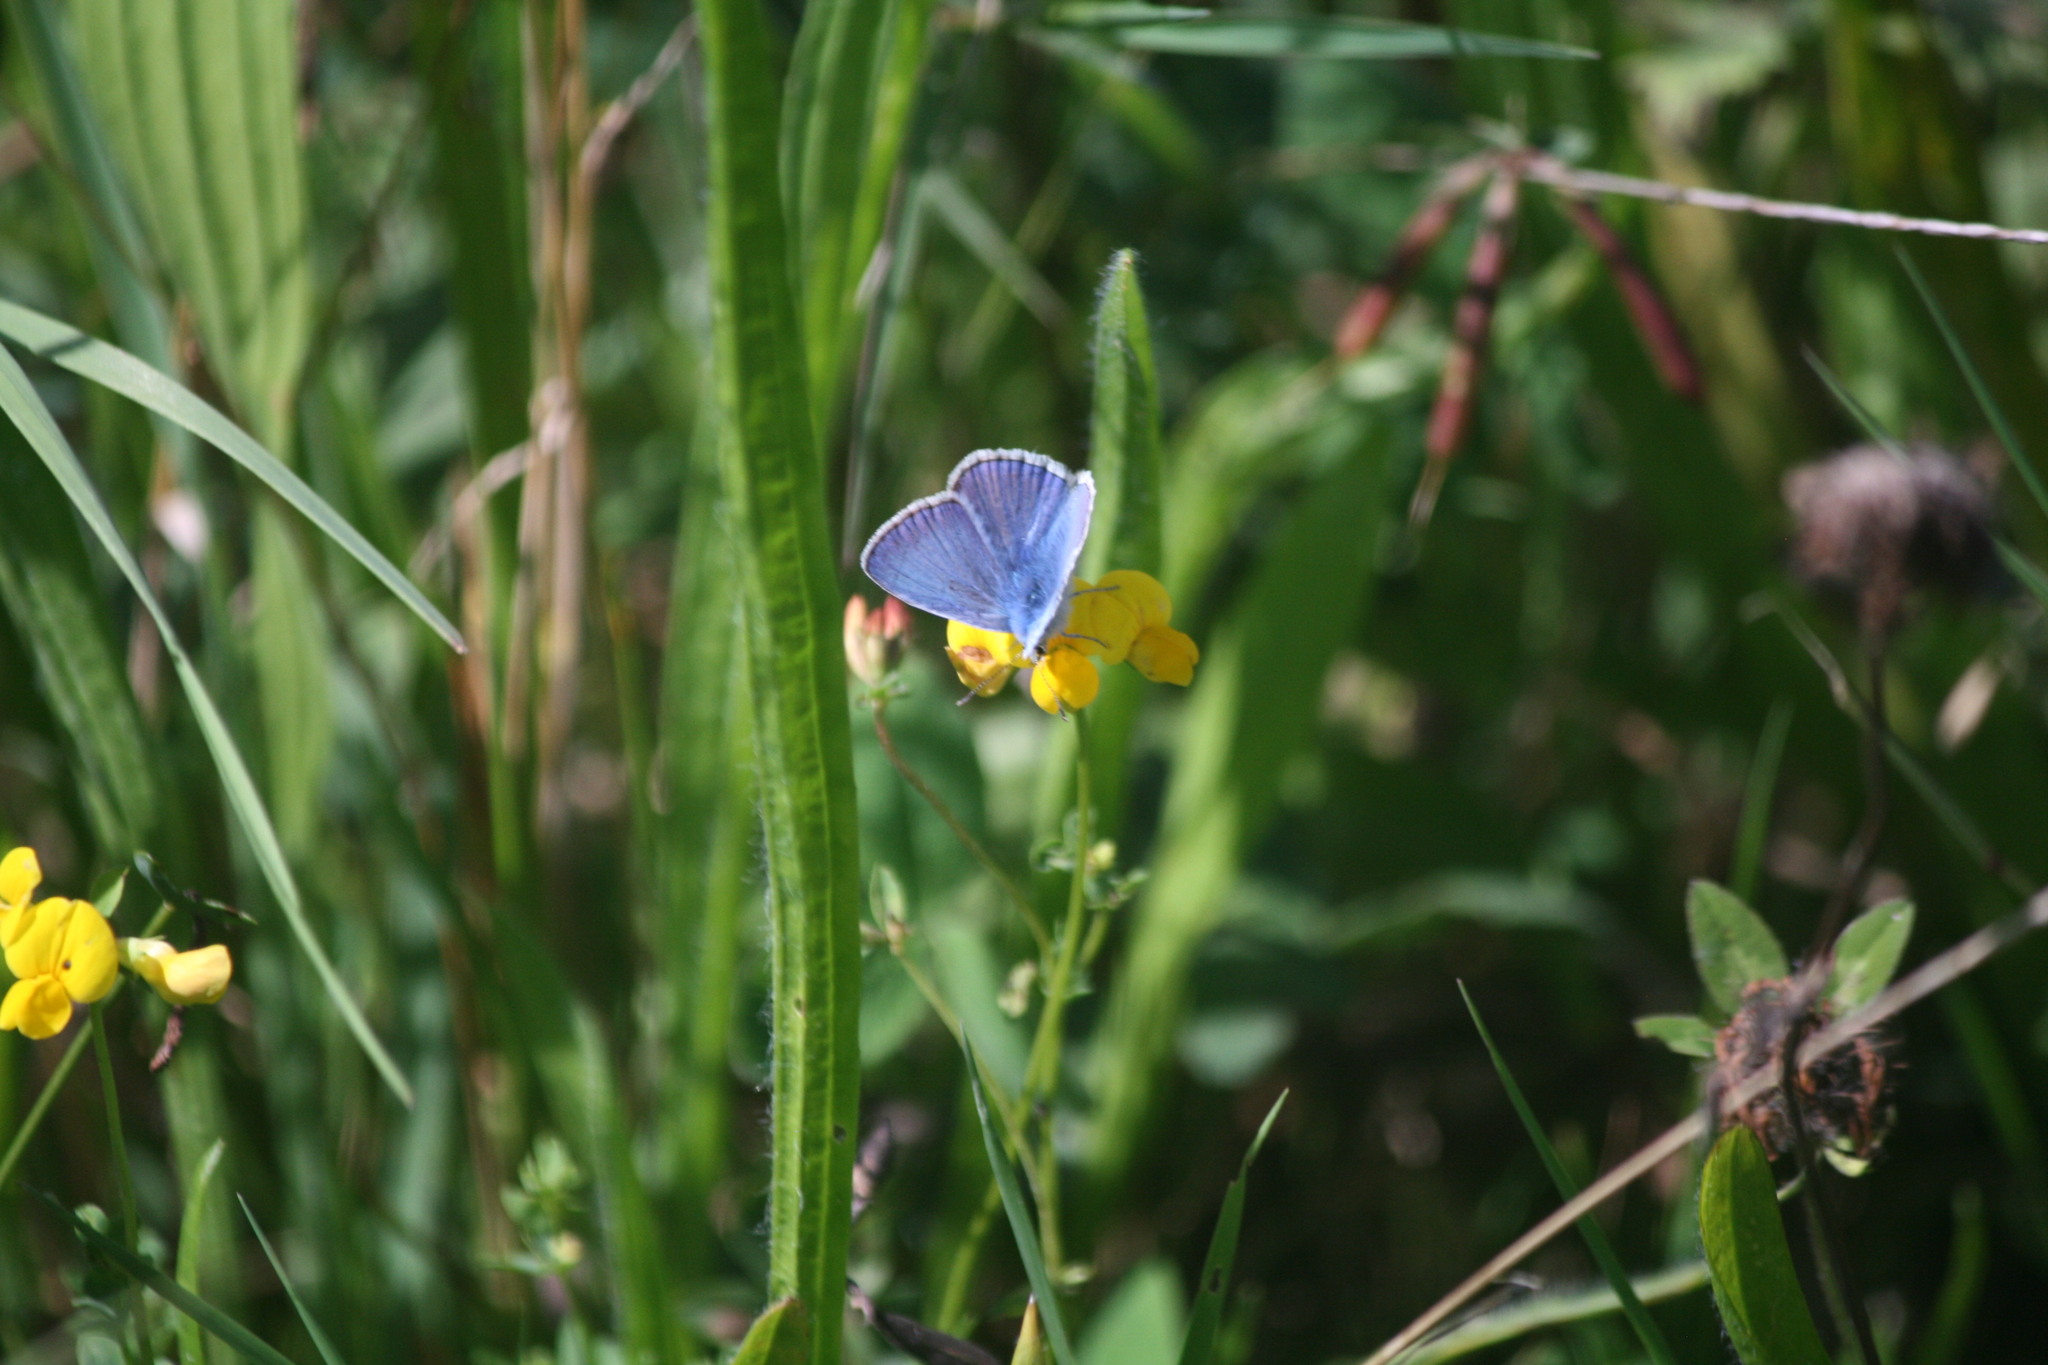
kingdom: Animalia
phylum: Arthropoda
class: Insecta
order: Lepidoptera
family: Lycaenidae
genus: Polyommatus
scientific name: Polyommatus icarus
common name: Common blue
